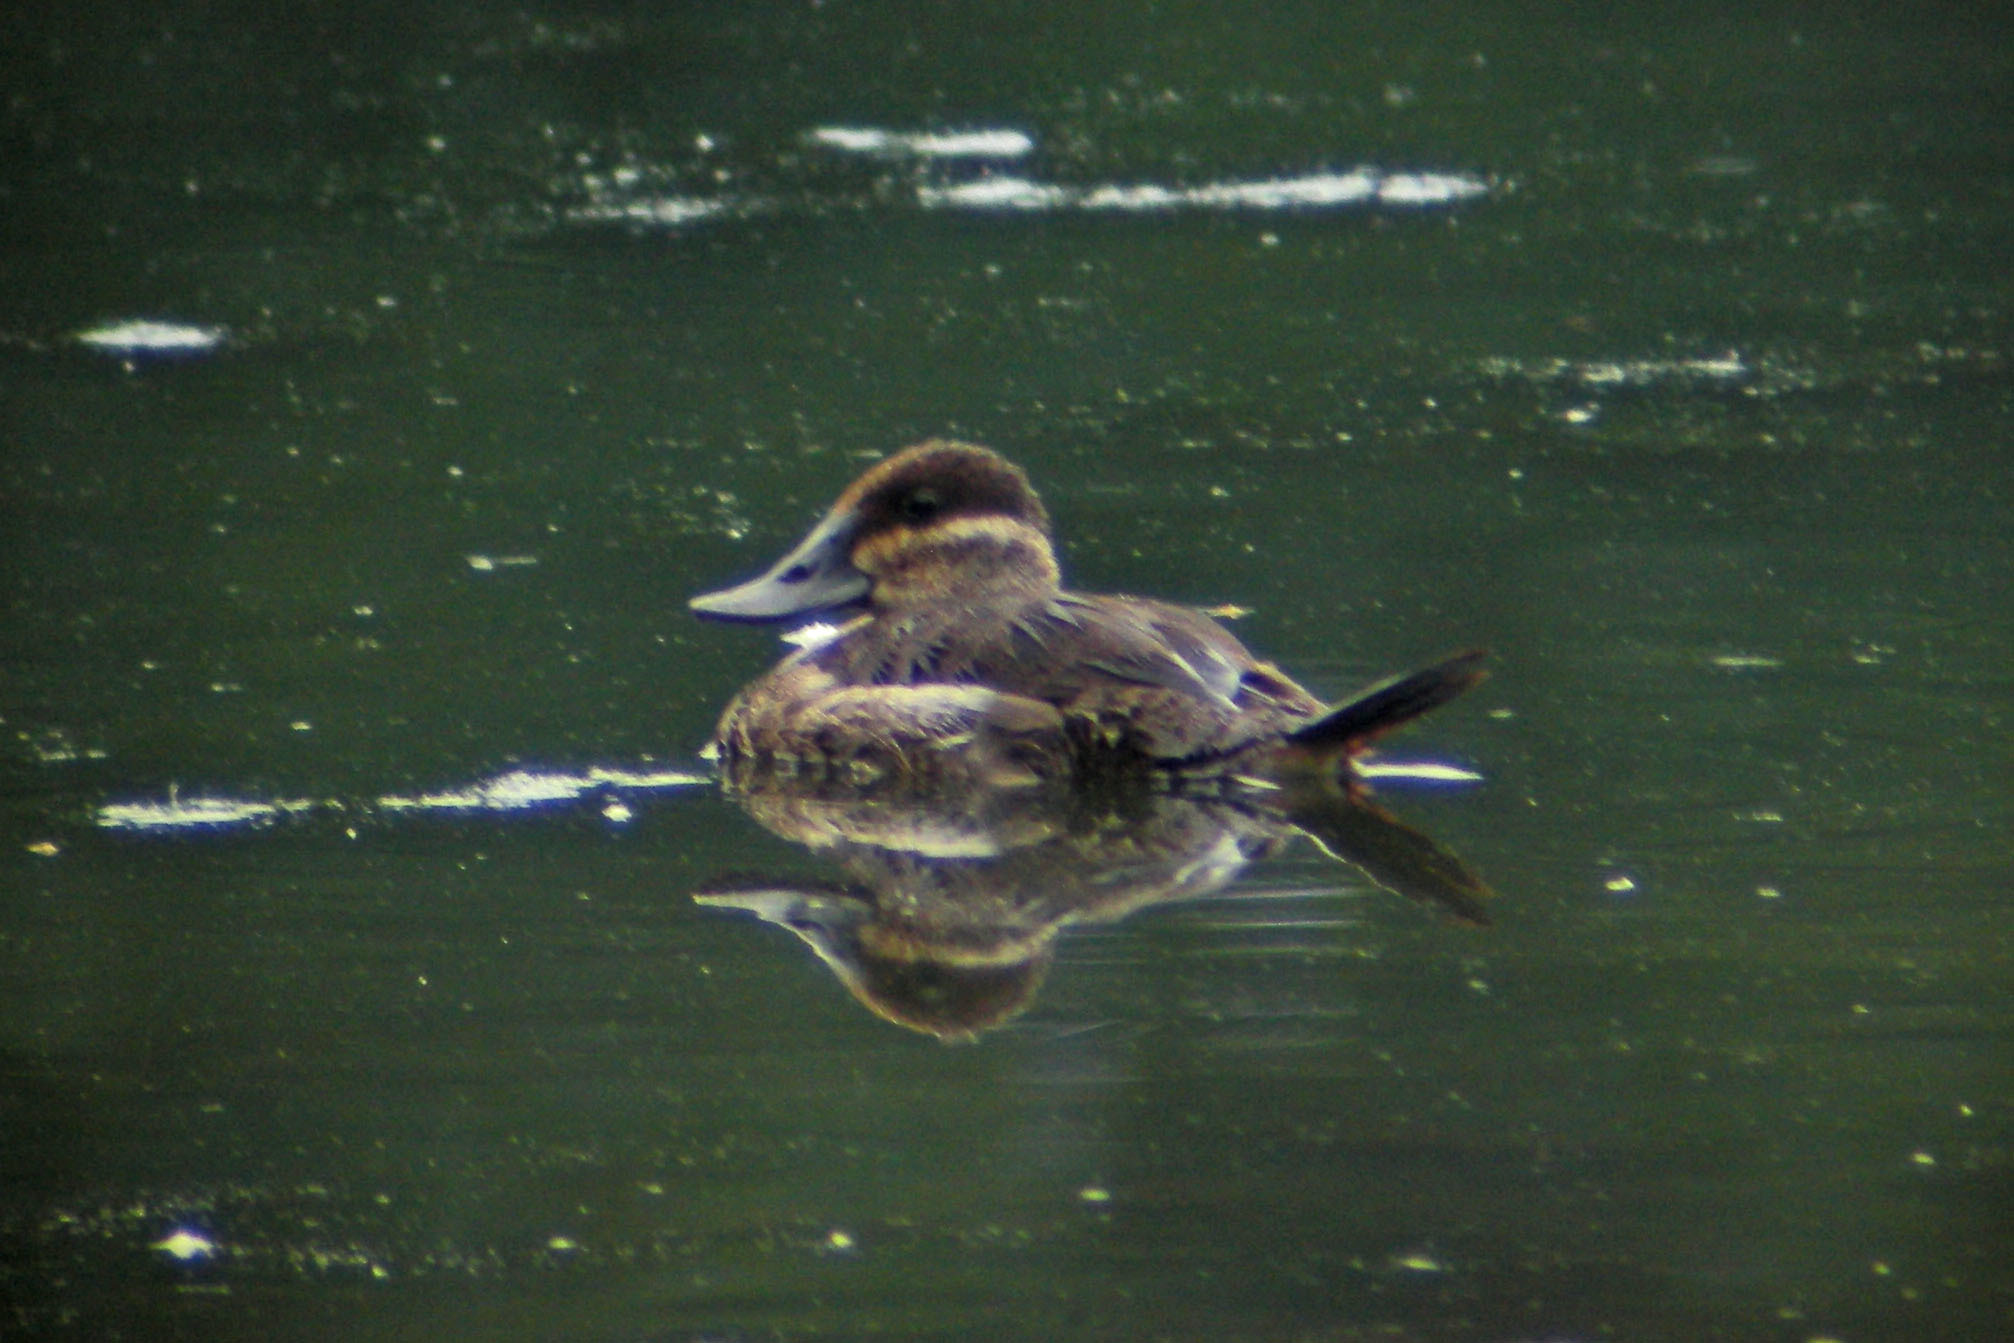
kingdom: Animalia
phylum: Chordata
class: Aves
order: Anseriformes
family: Anatidae
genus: Oxyura
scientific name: Oxyura jamaicensis
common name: Ruddy duck
